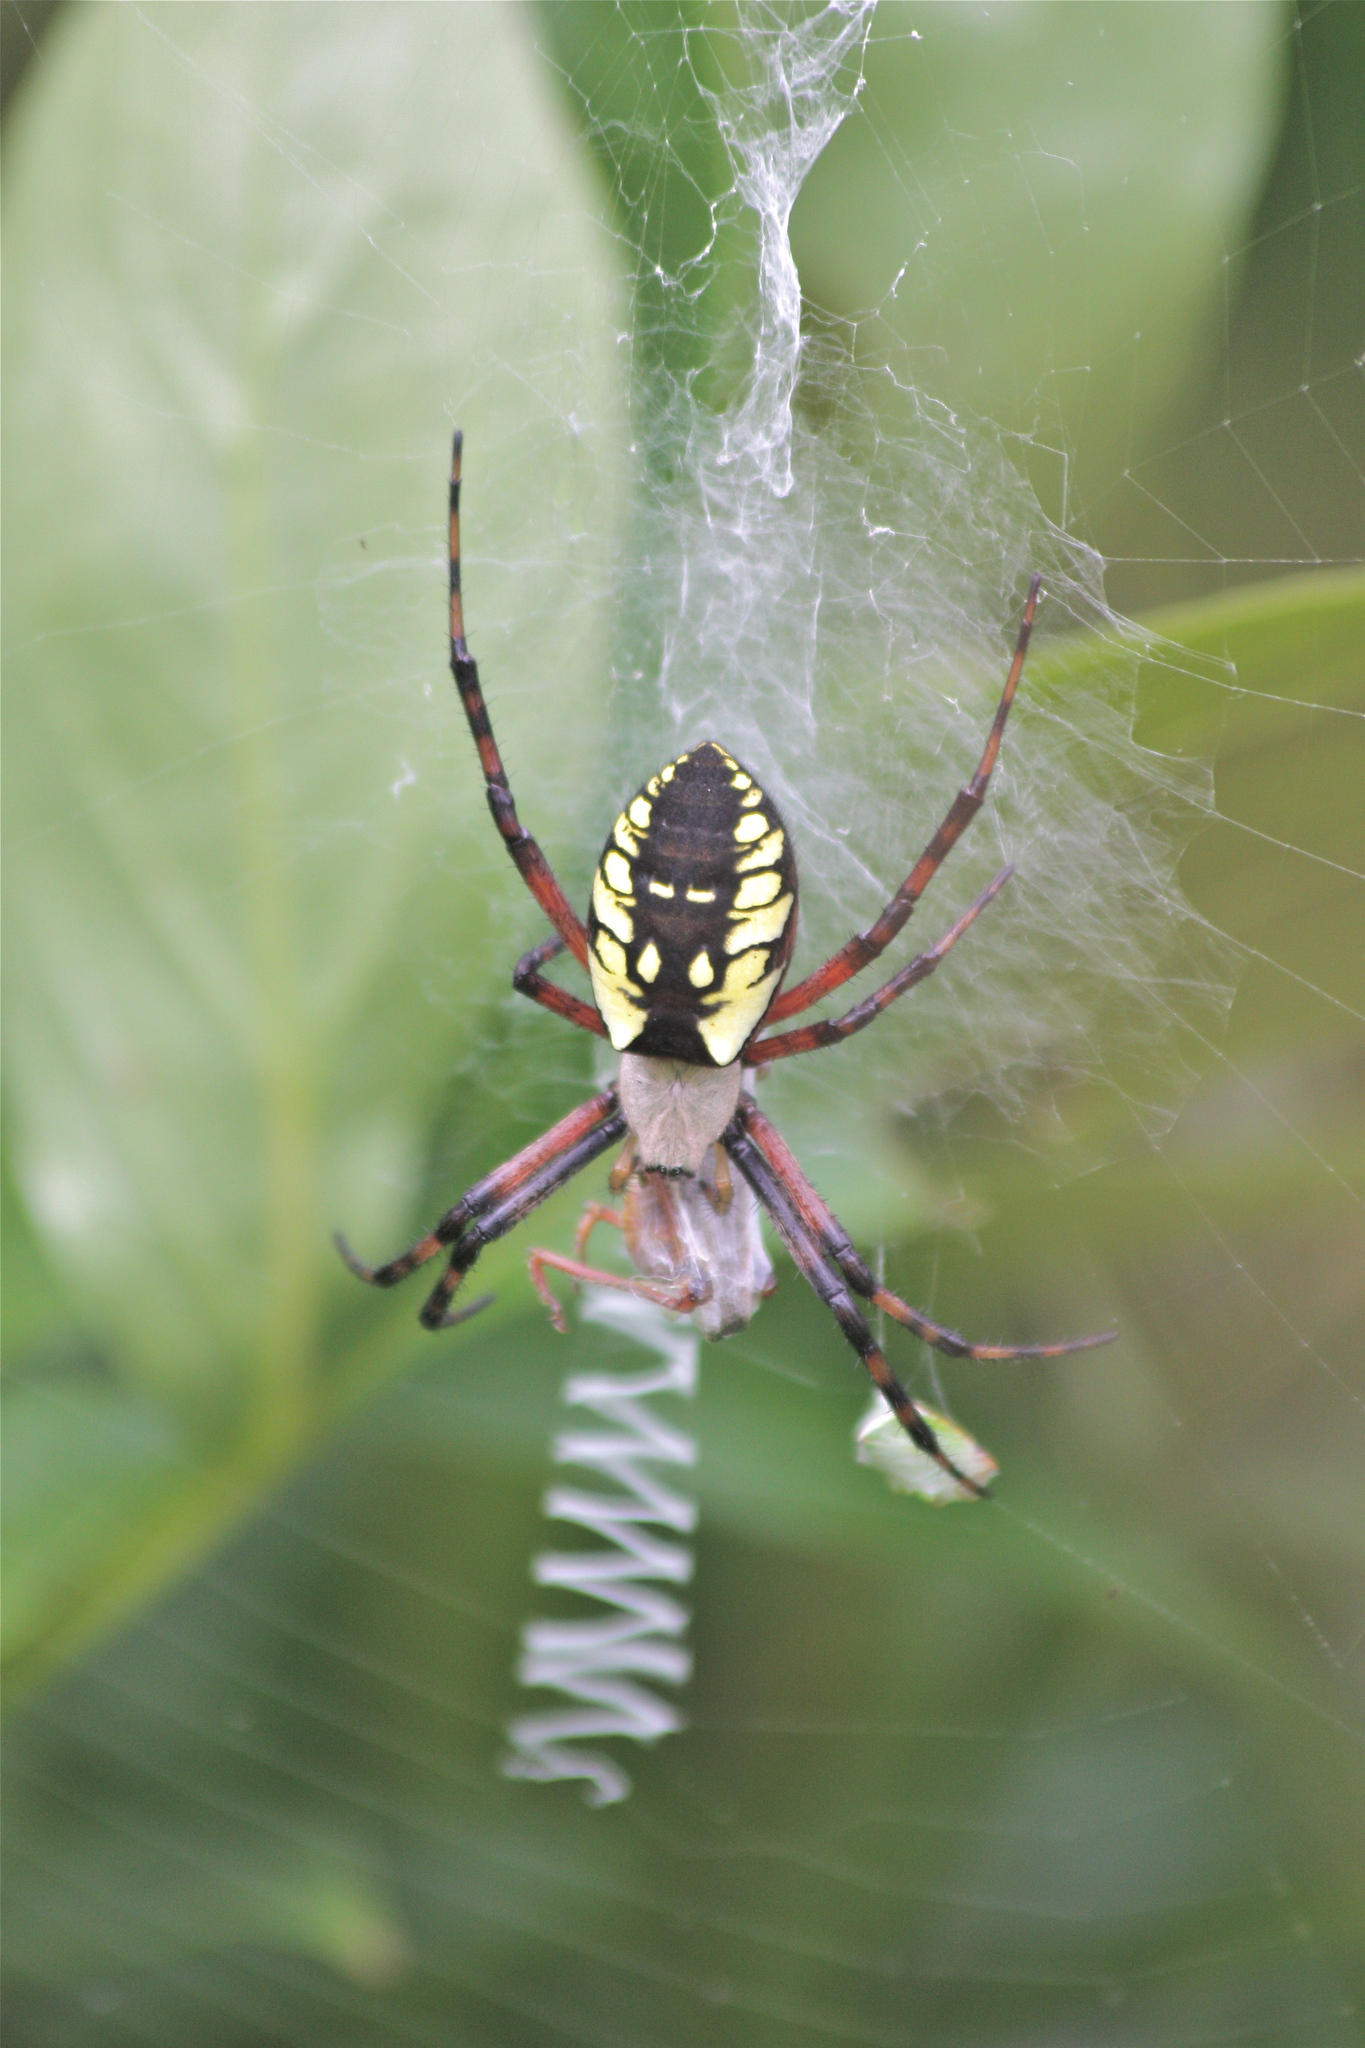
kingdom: Animalia
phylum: Arthropoda
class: Arachnida
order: Araneae
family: Araneidae
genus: Argiope
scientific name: Argiope aurantia
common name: Orb weavers
